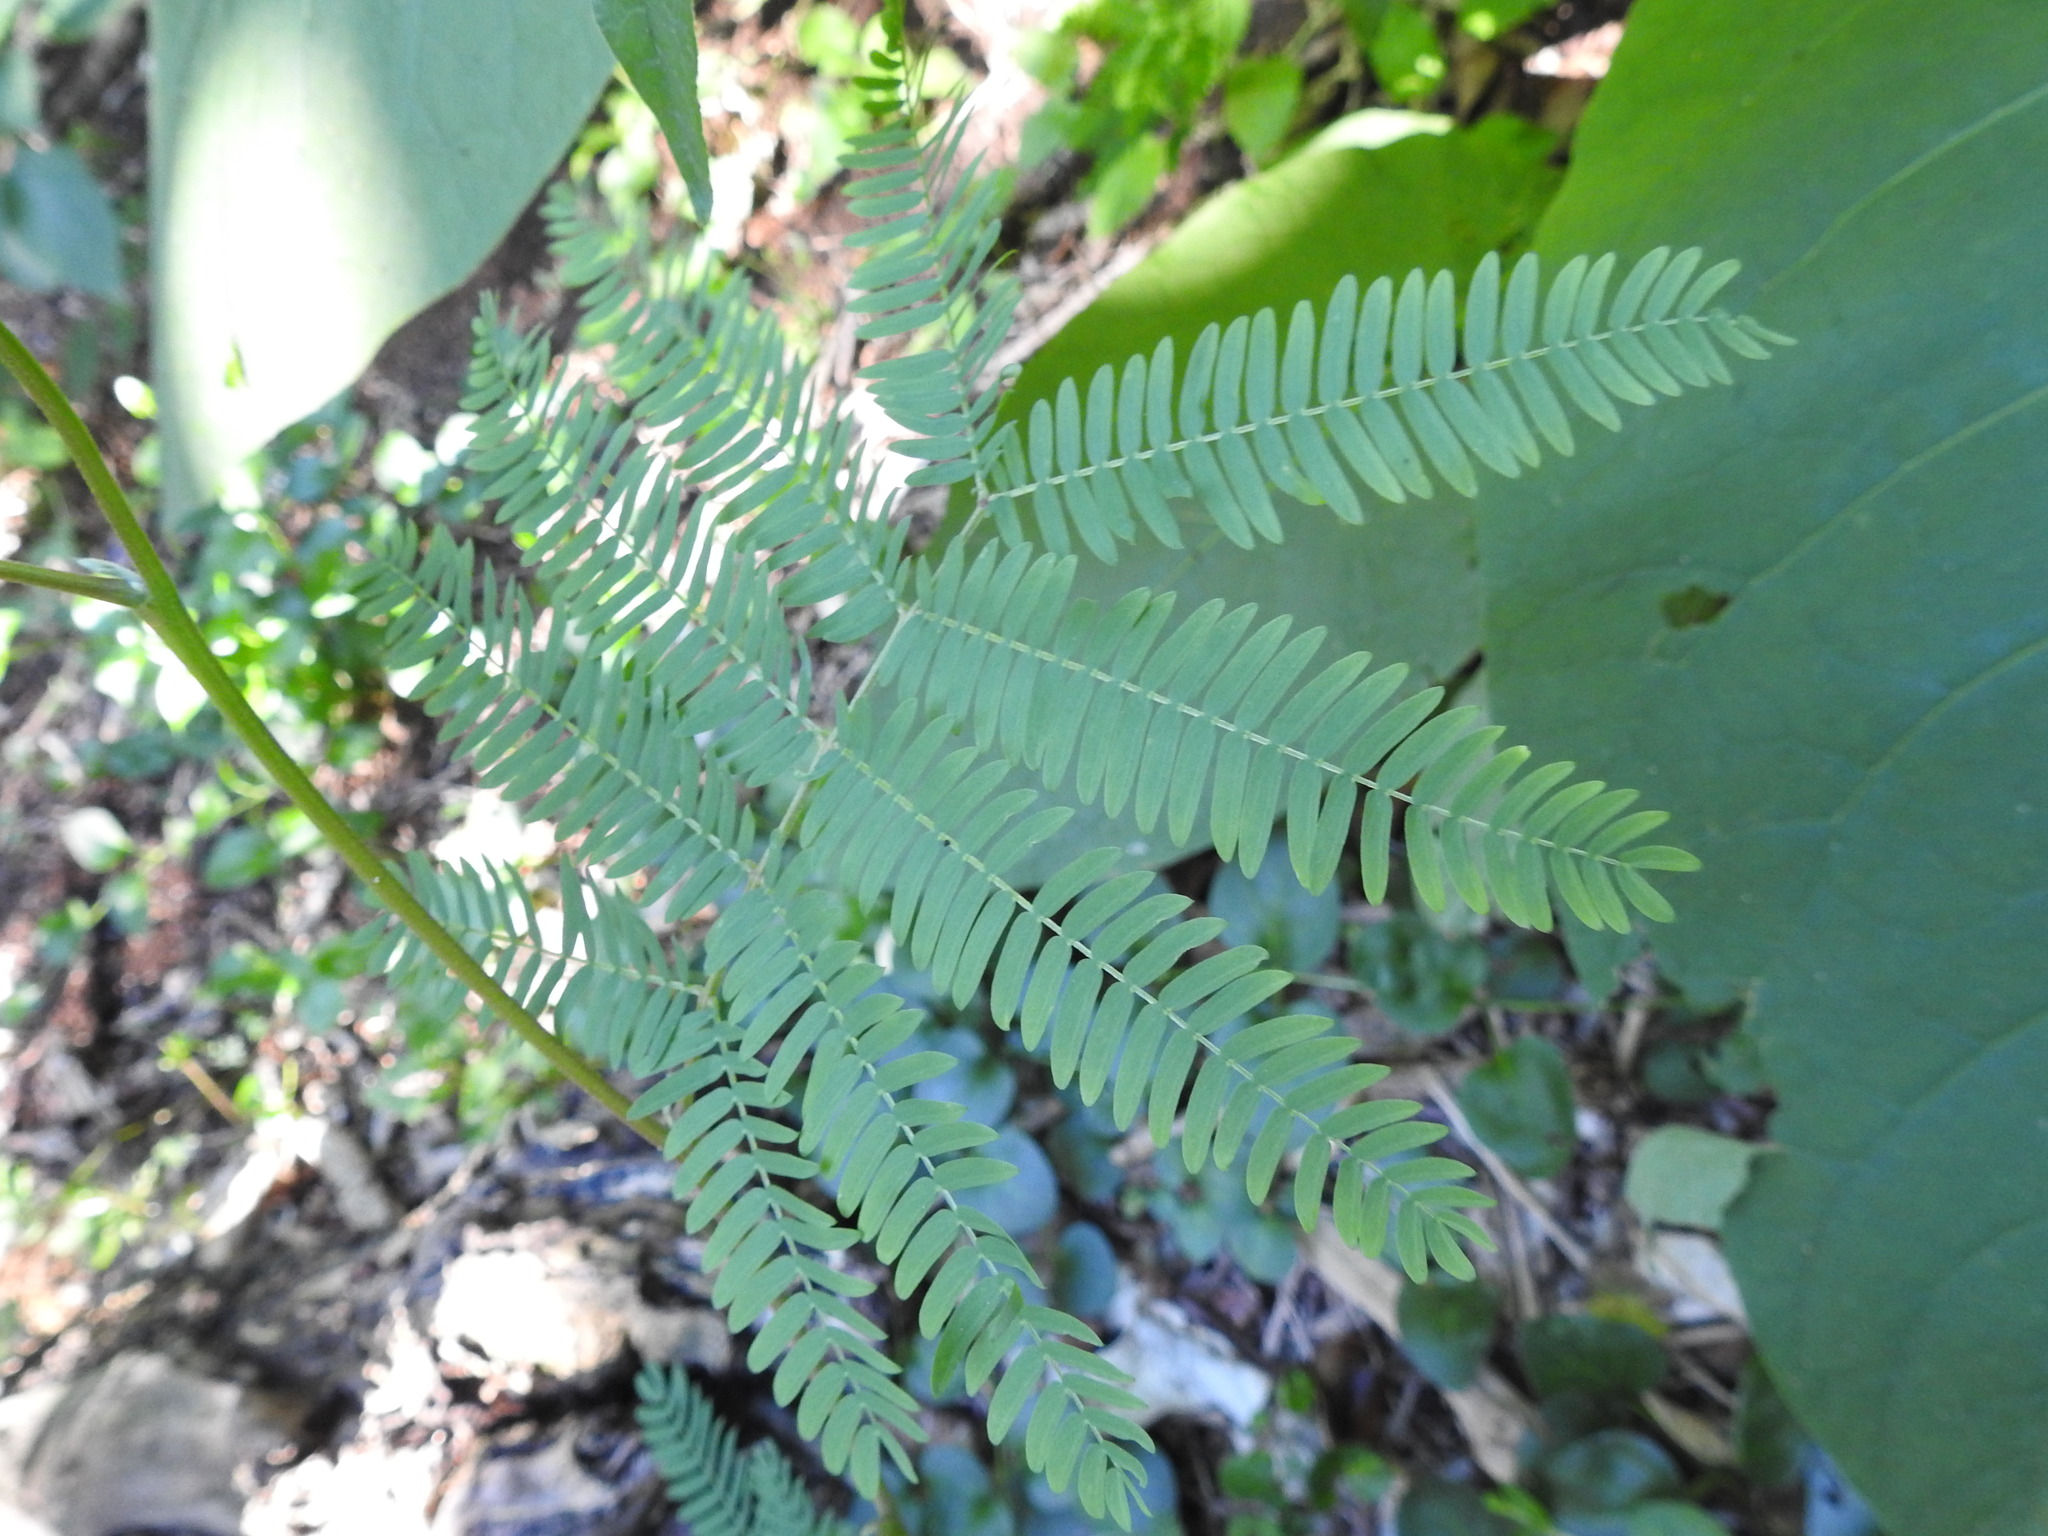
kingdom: Plantae
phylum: Tracheophyta
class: Magnoliopsida
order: Fabales
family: Fabaceae
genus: Paraserianthes
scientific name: Paraserianthes lophantha
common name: Plume albizia
